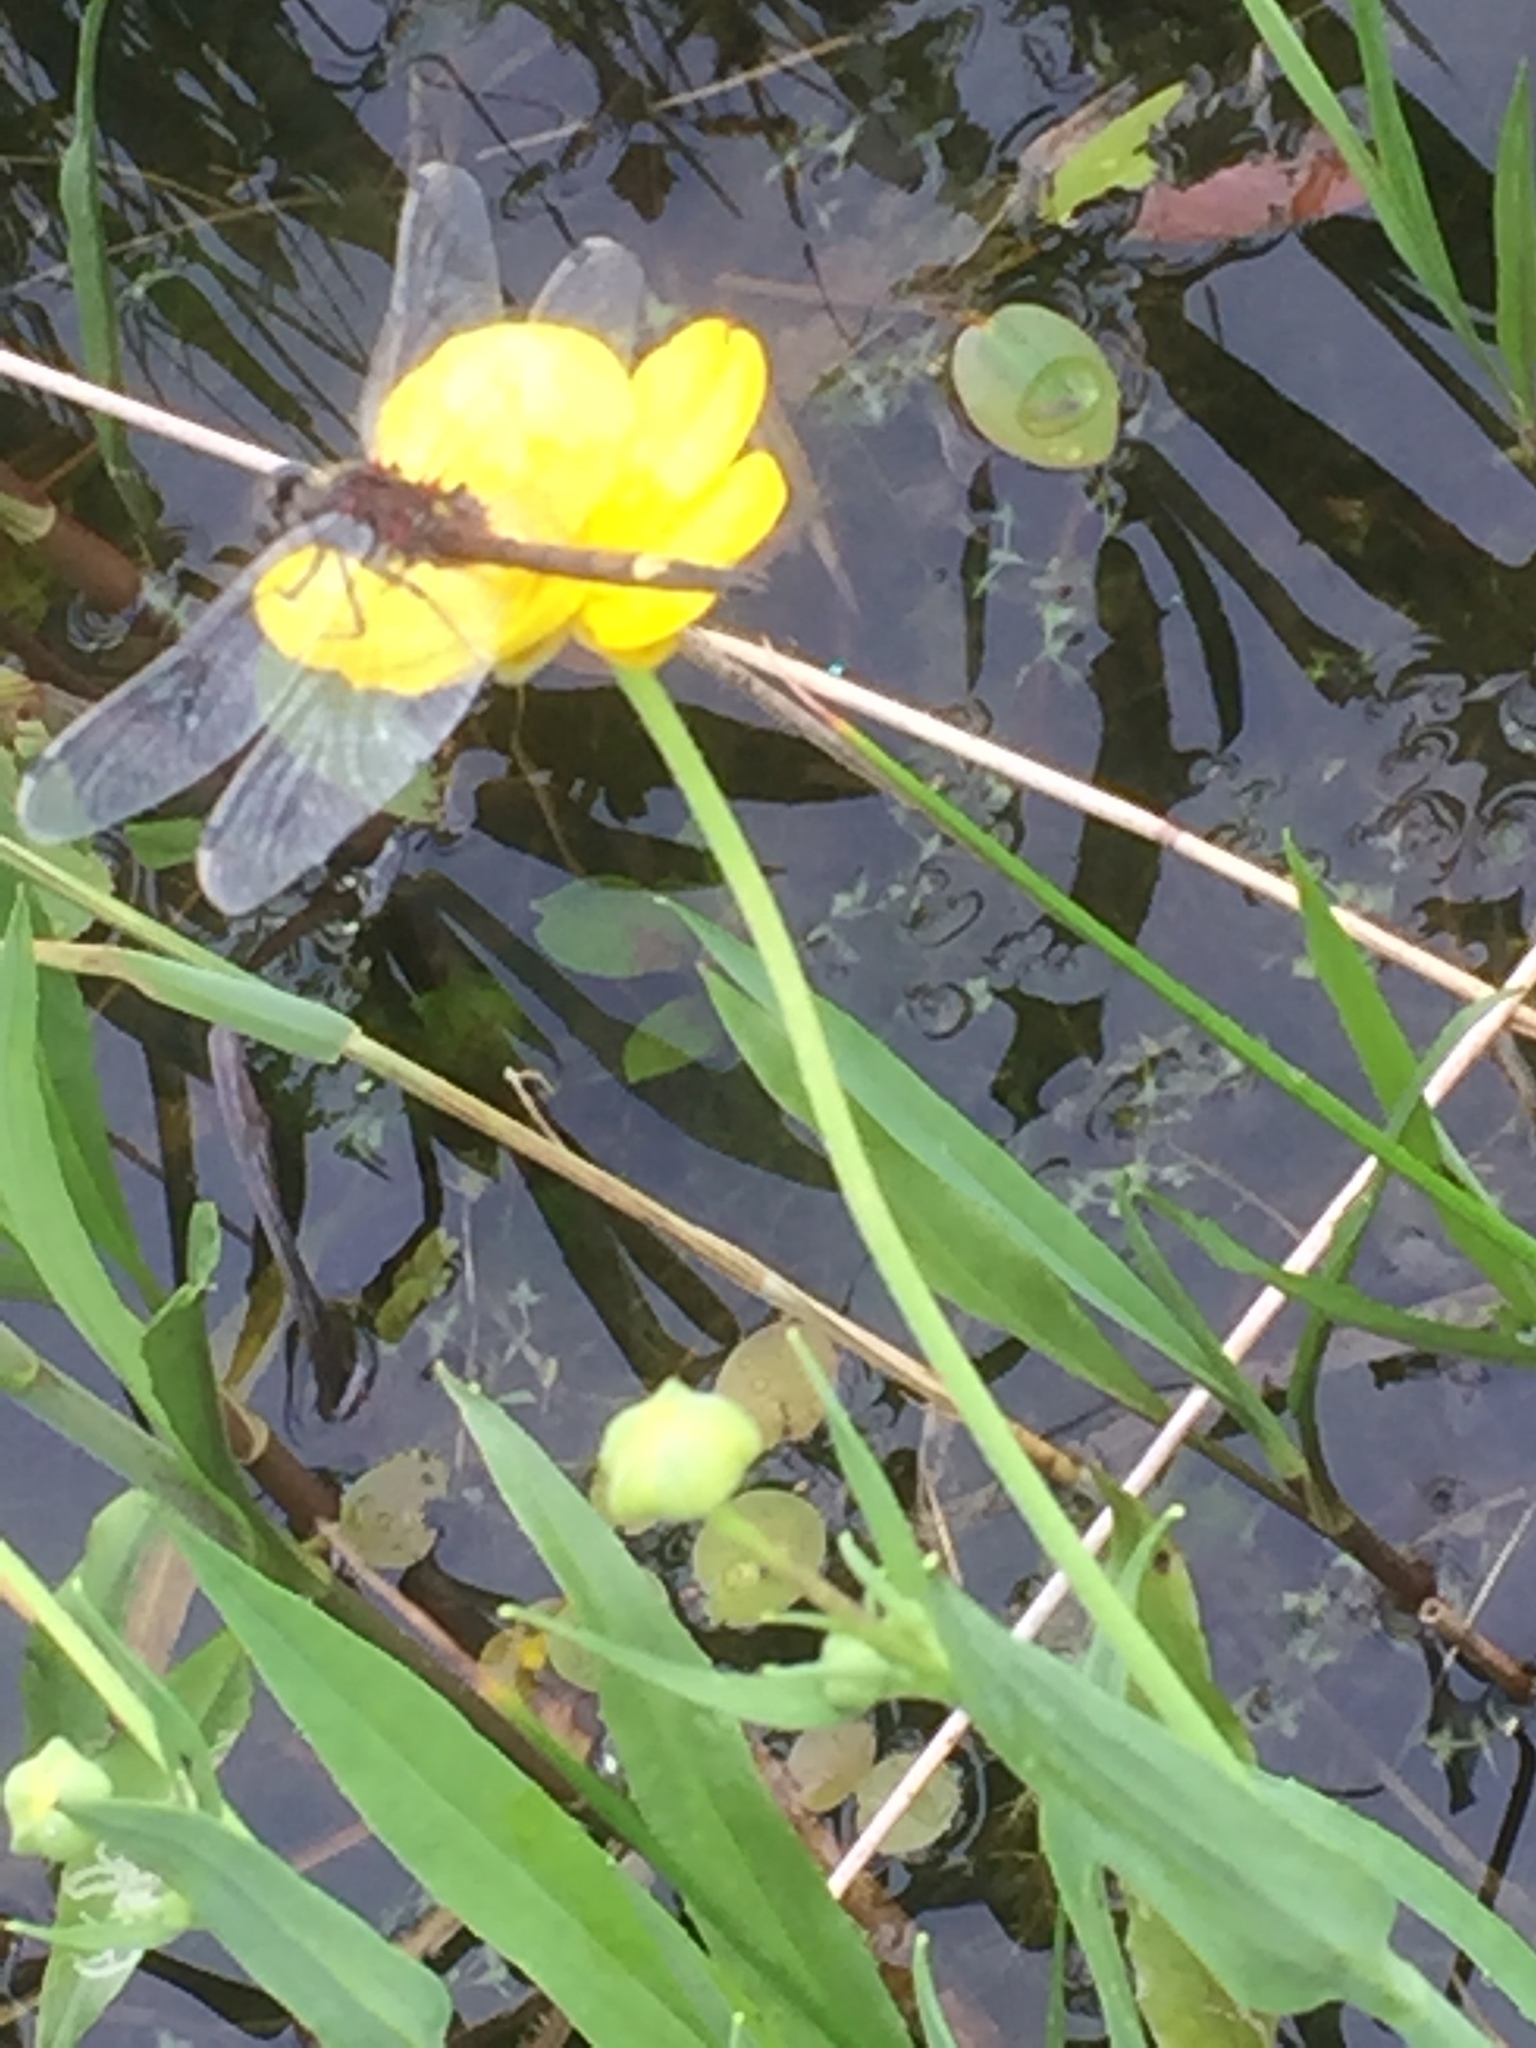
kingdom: Animalia
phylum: Arthropoda
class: Insecta
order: Odonata
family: Libellulidae
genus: Leucorrhinia
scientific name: Leucorrhinia pectoralis
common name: Yellow-spotted whiteface
